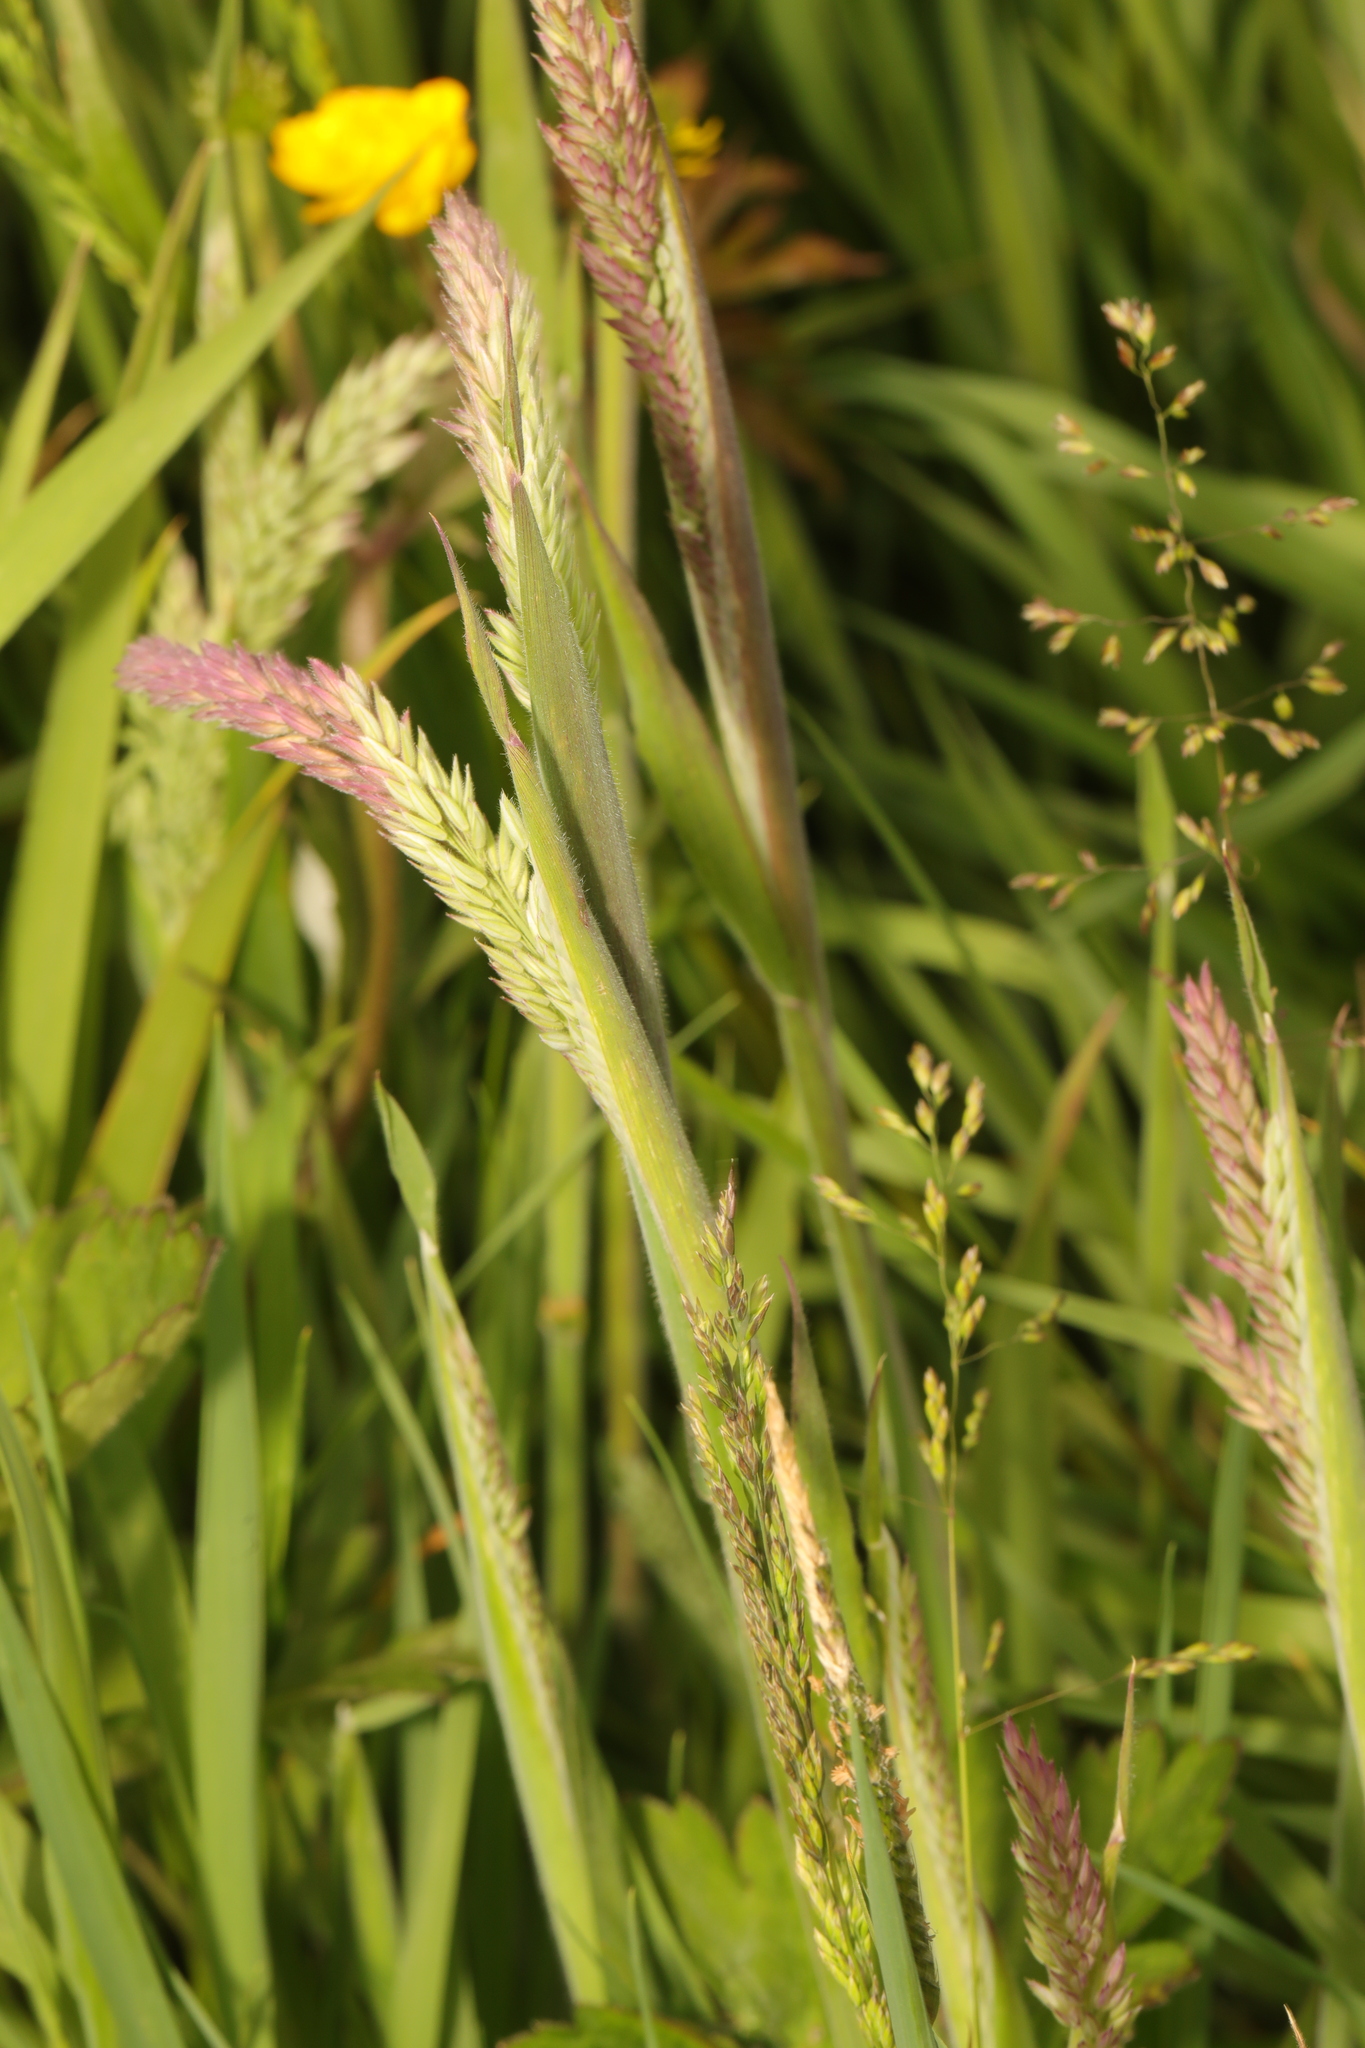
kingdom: Plantae
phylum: Tracheophyta
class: Liliopsida
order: Poales
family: Poaceae
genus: Holcus
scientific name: Holcus lanatus
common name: Yorkshire-fog
